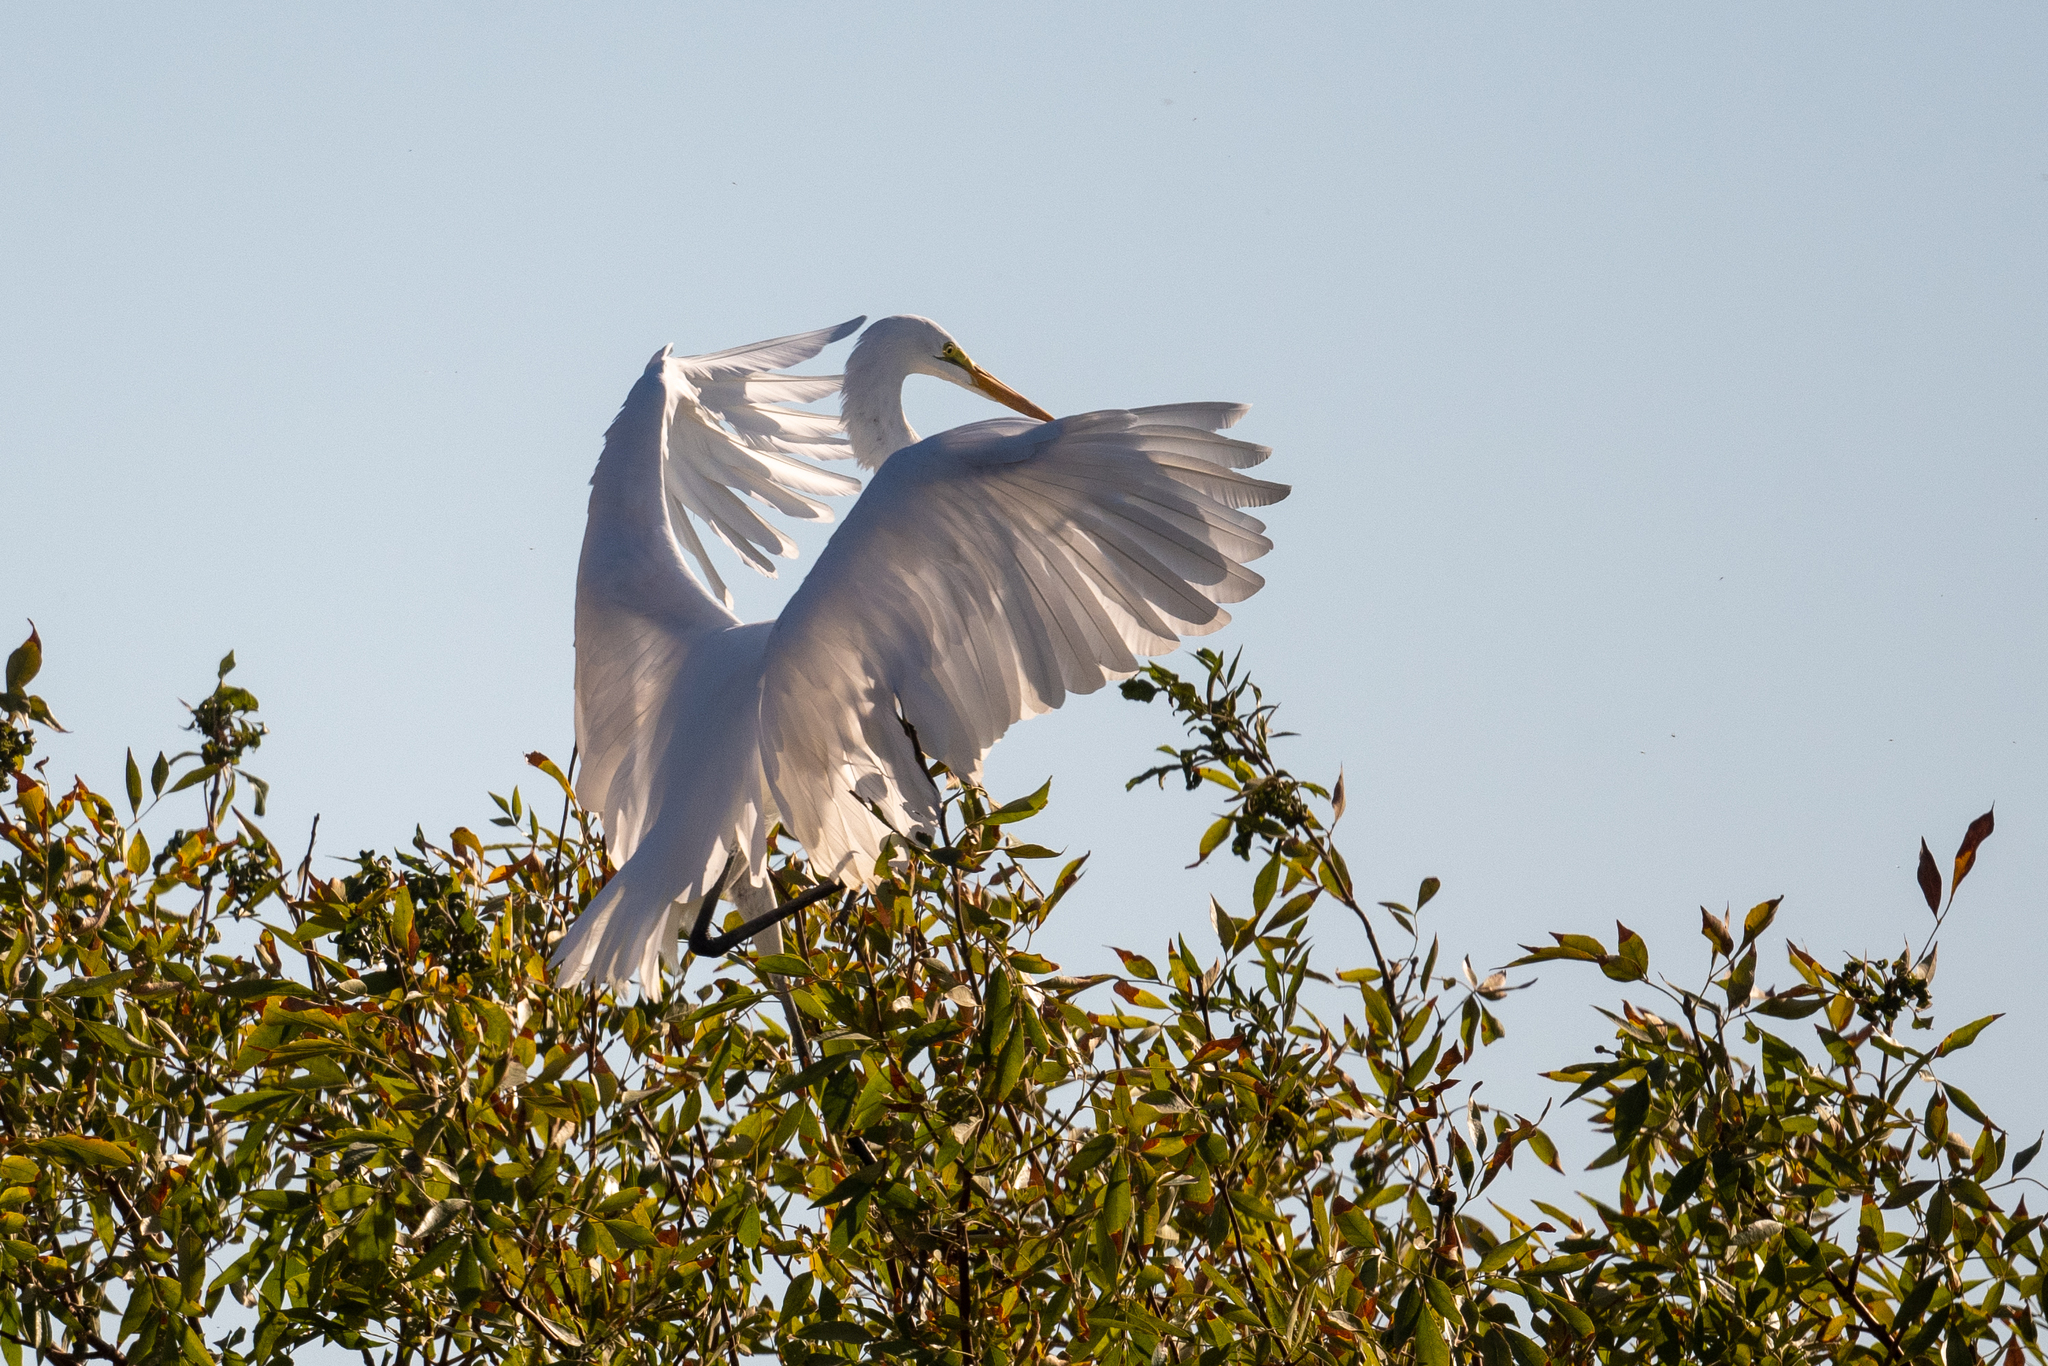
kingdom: Animalia
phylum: Chordata
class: Aves
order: Pelecaniformes
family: Ardeidae
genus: Ardea
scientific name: Ardea alba
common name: Great egret
